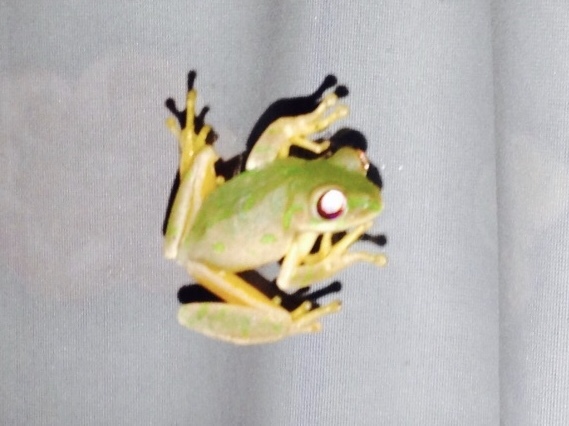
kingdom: Animalia
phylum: Chordata
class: Amphibia
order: Anura
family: Arthroleptidae
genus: Leptopelis
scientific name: Leptopelis natalensis
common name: Natal tree frog
